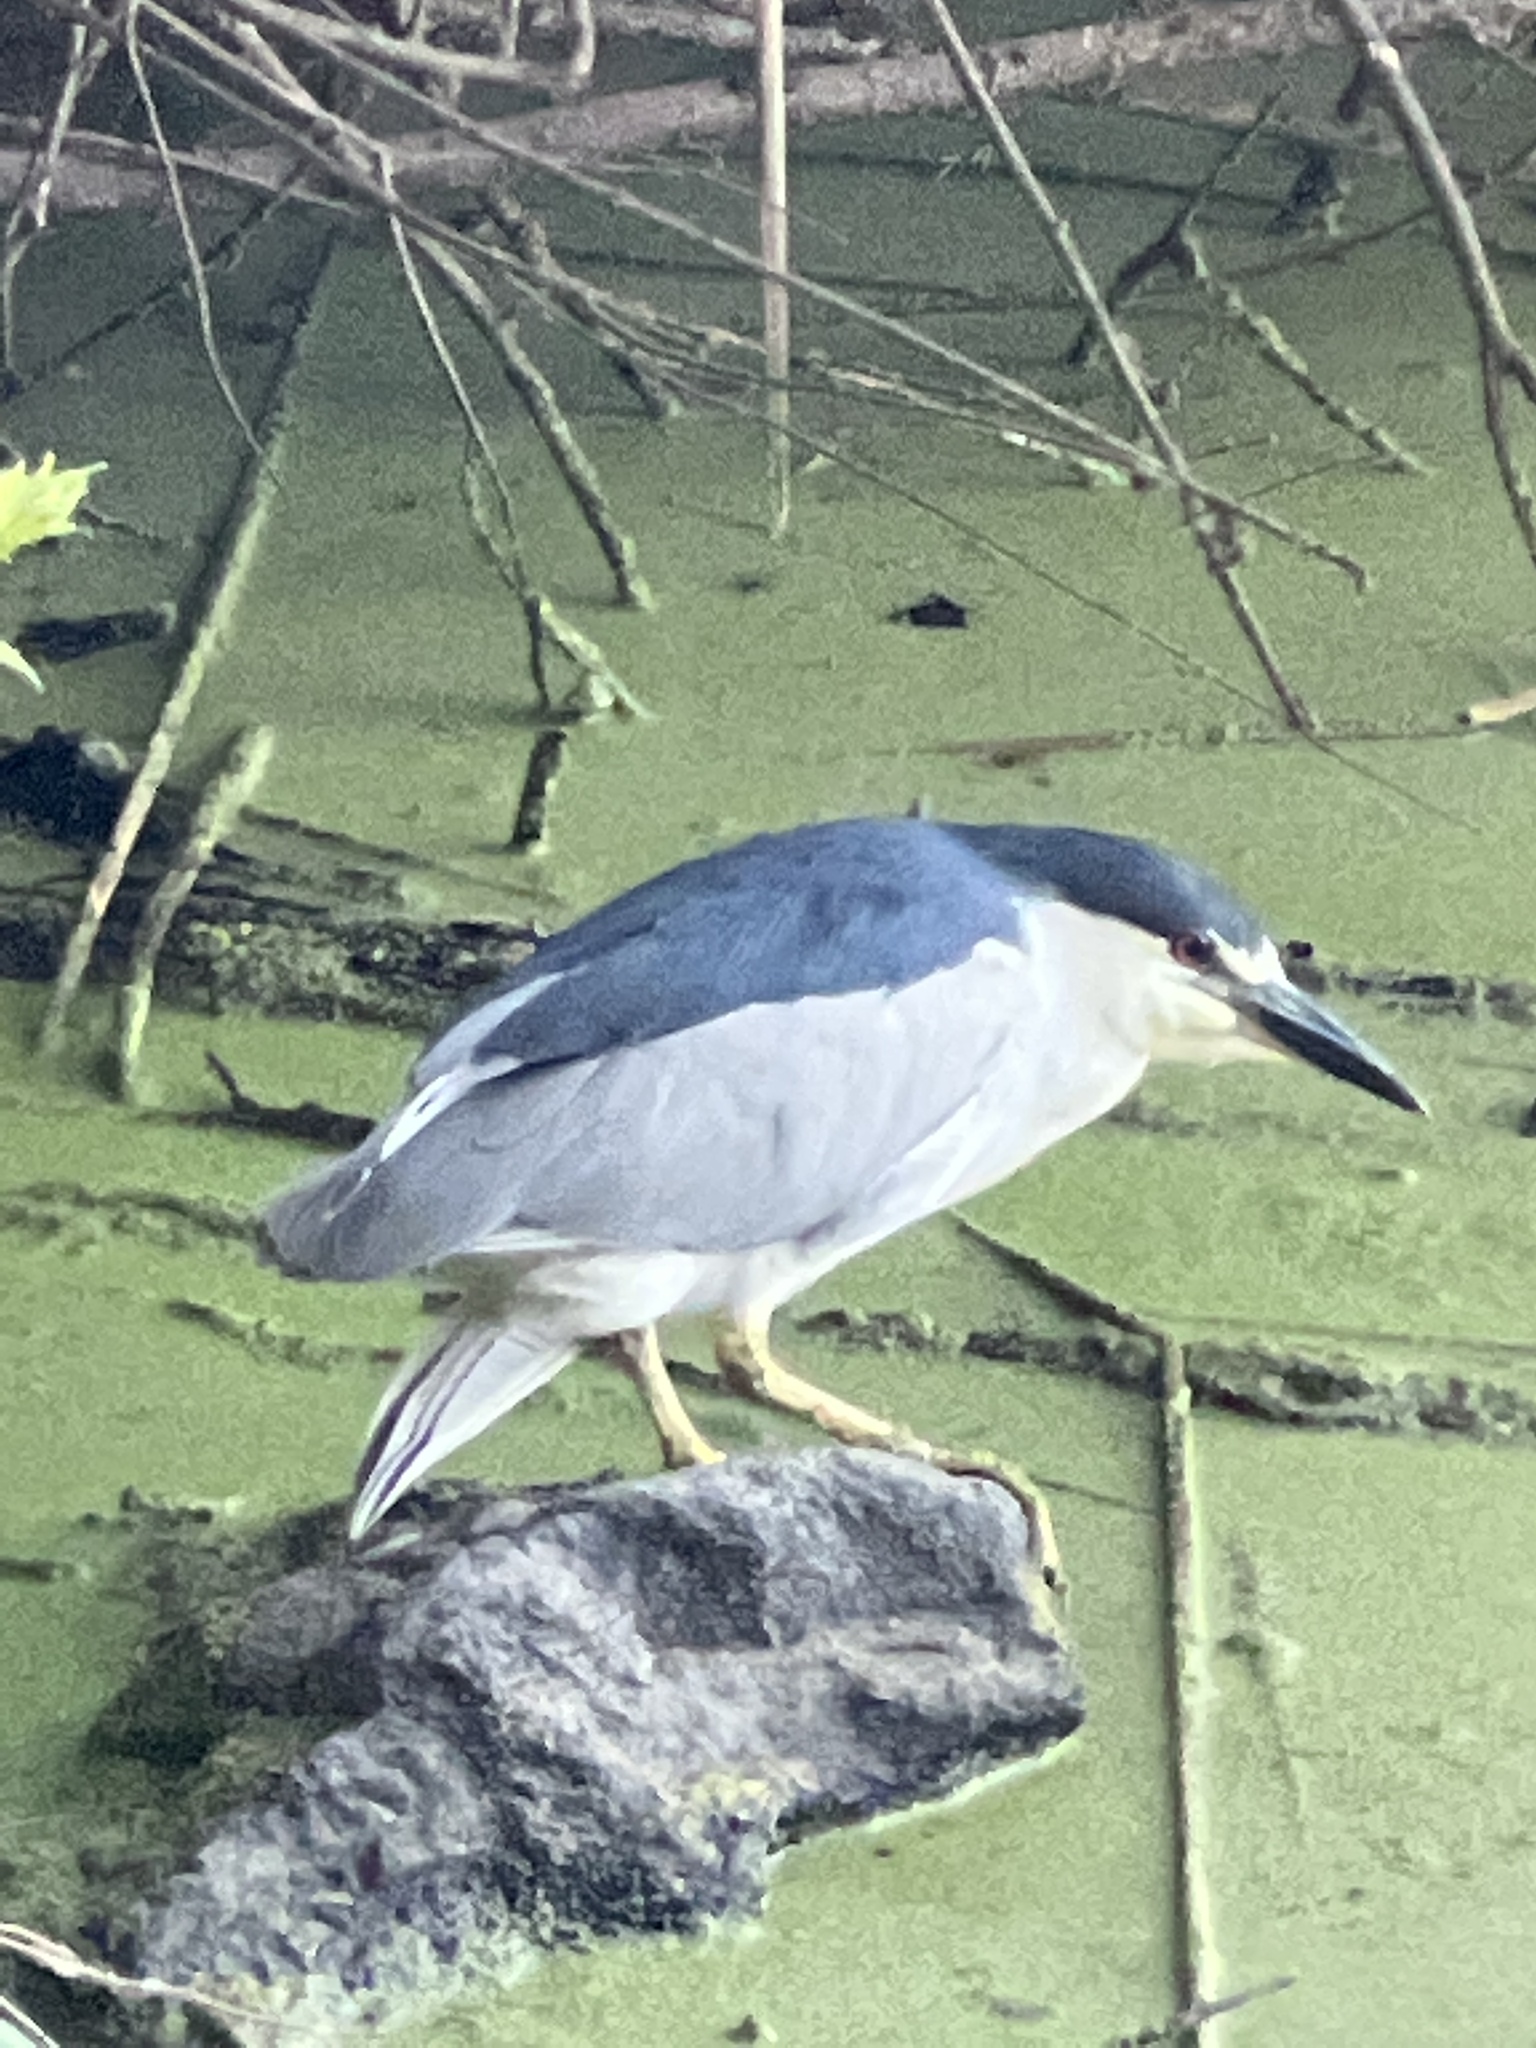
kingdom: Animalia
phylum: Chordata
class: Aves
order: Pelecaniformes
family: Ardeidae
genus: Nycticorax
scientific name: Nycticorax nycticorax
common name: Black-crowned night heron
